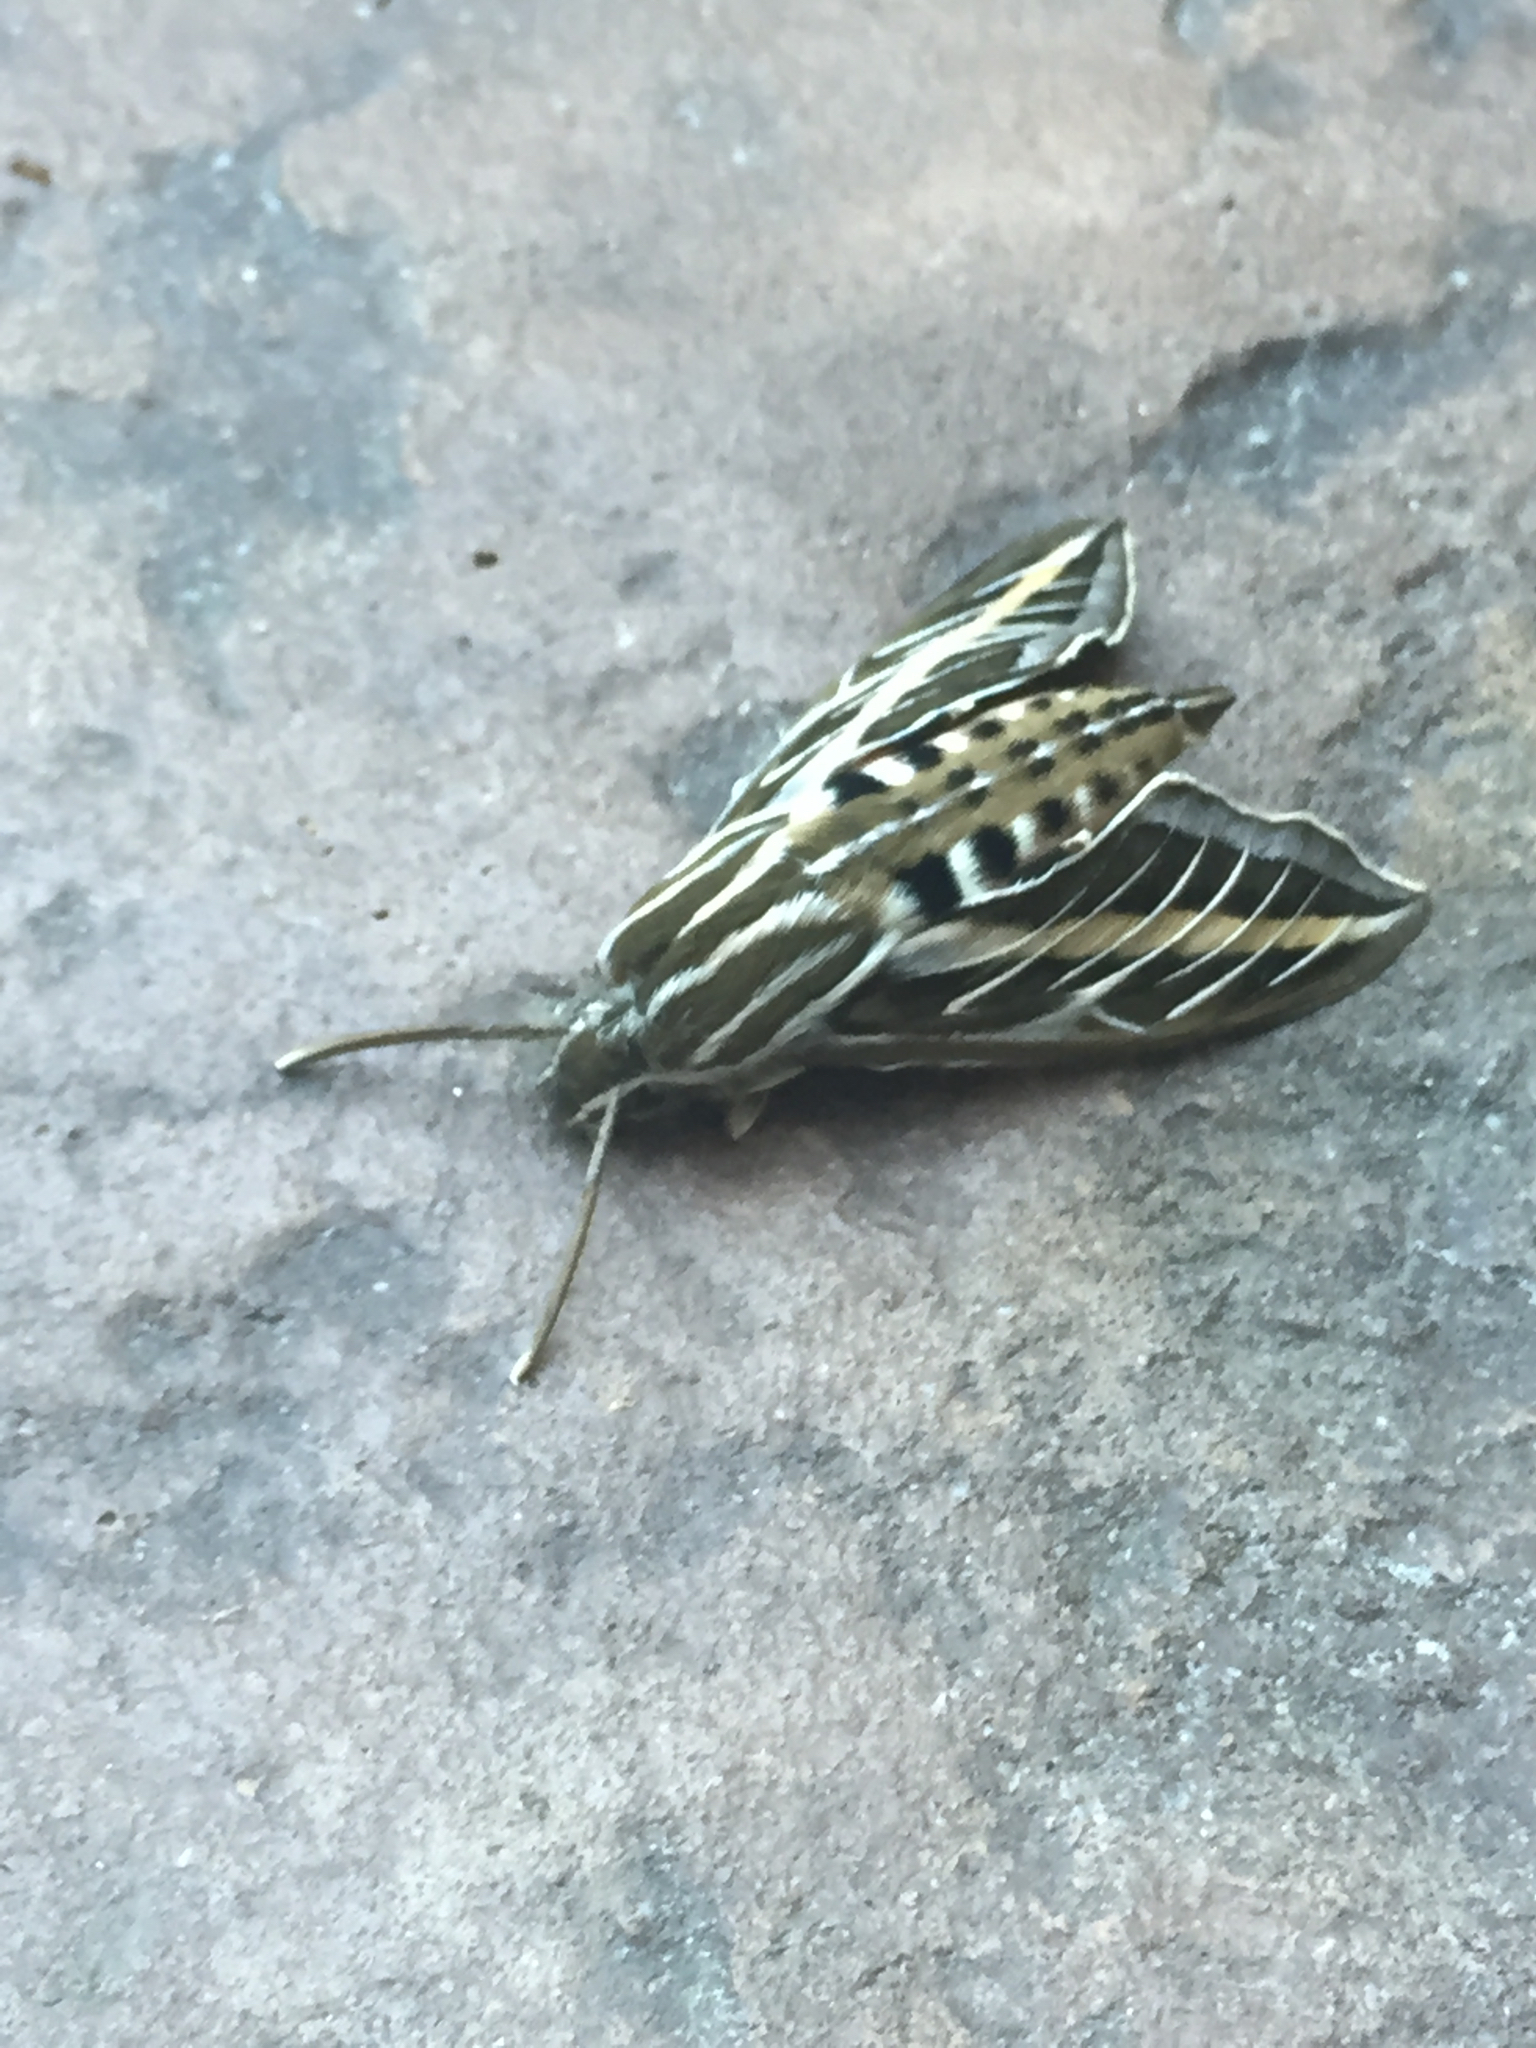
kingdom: Animalia
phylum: Arthropoda
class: Insecta
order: Lepidoptera
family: Sphingidae
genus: Hyles
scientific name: Hyles lineata
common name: White-lined sphinx
